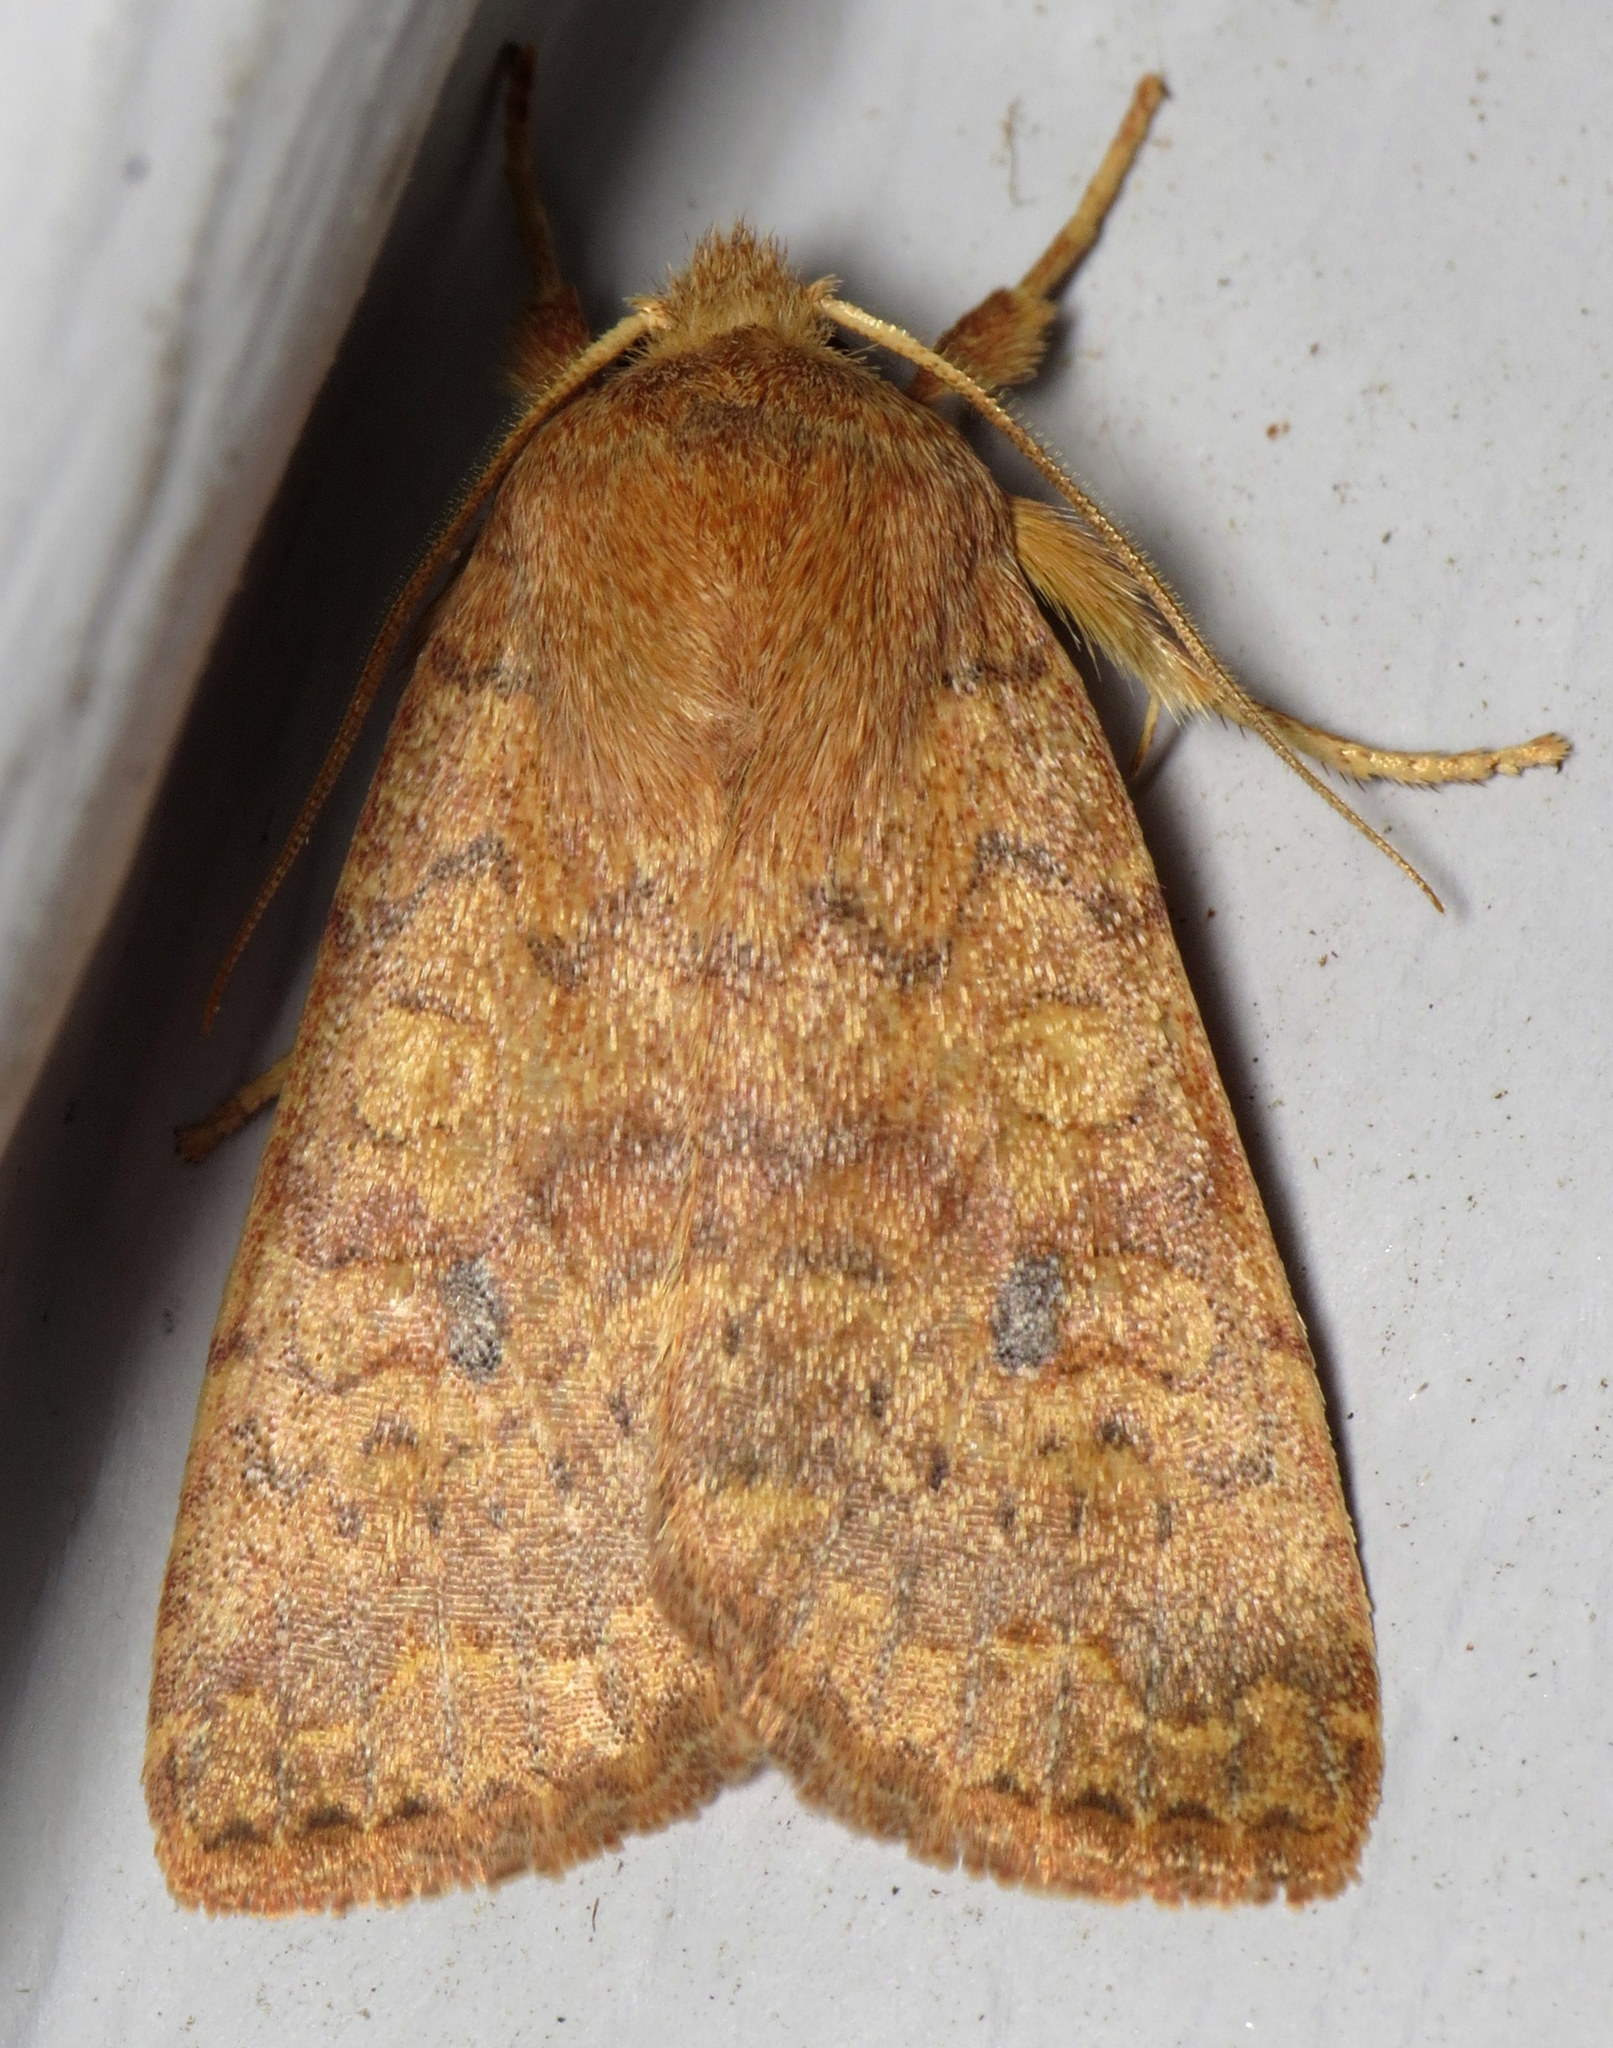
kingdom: Animalia
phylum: Arthropoda
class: Insecta
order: Lepidoptera
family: Noctuidae
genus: Agrochola
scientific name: Agrochola bicolorago
